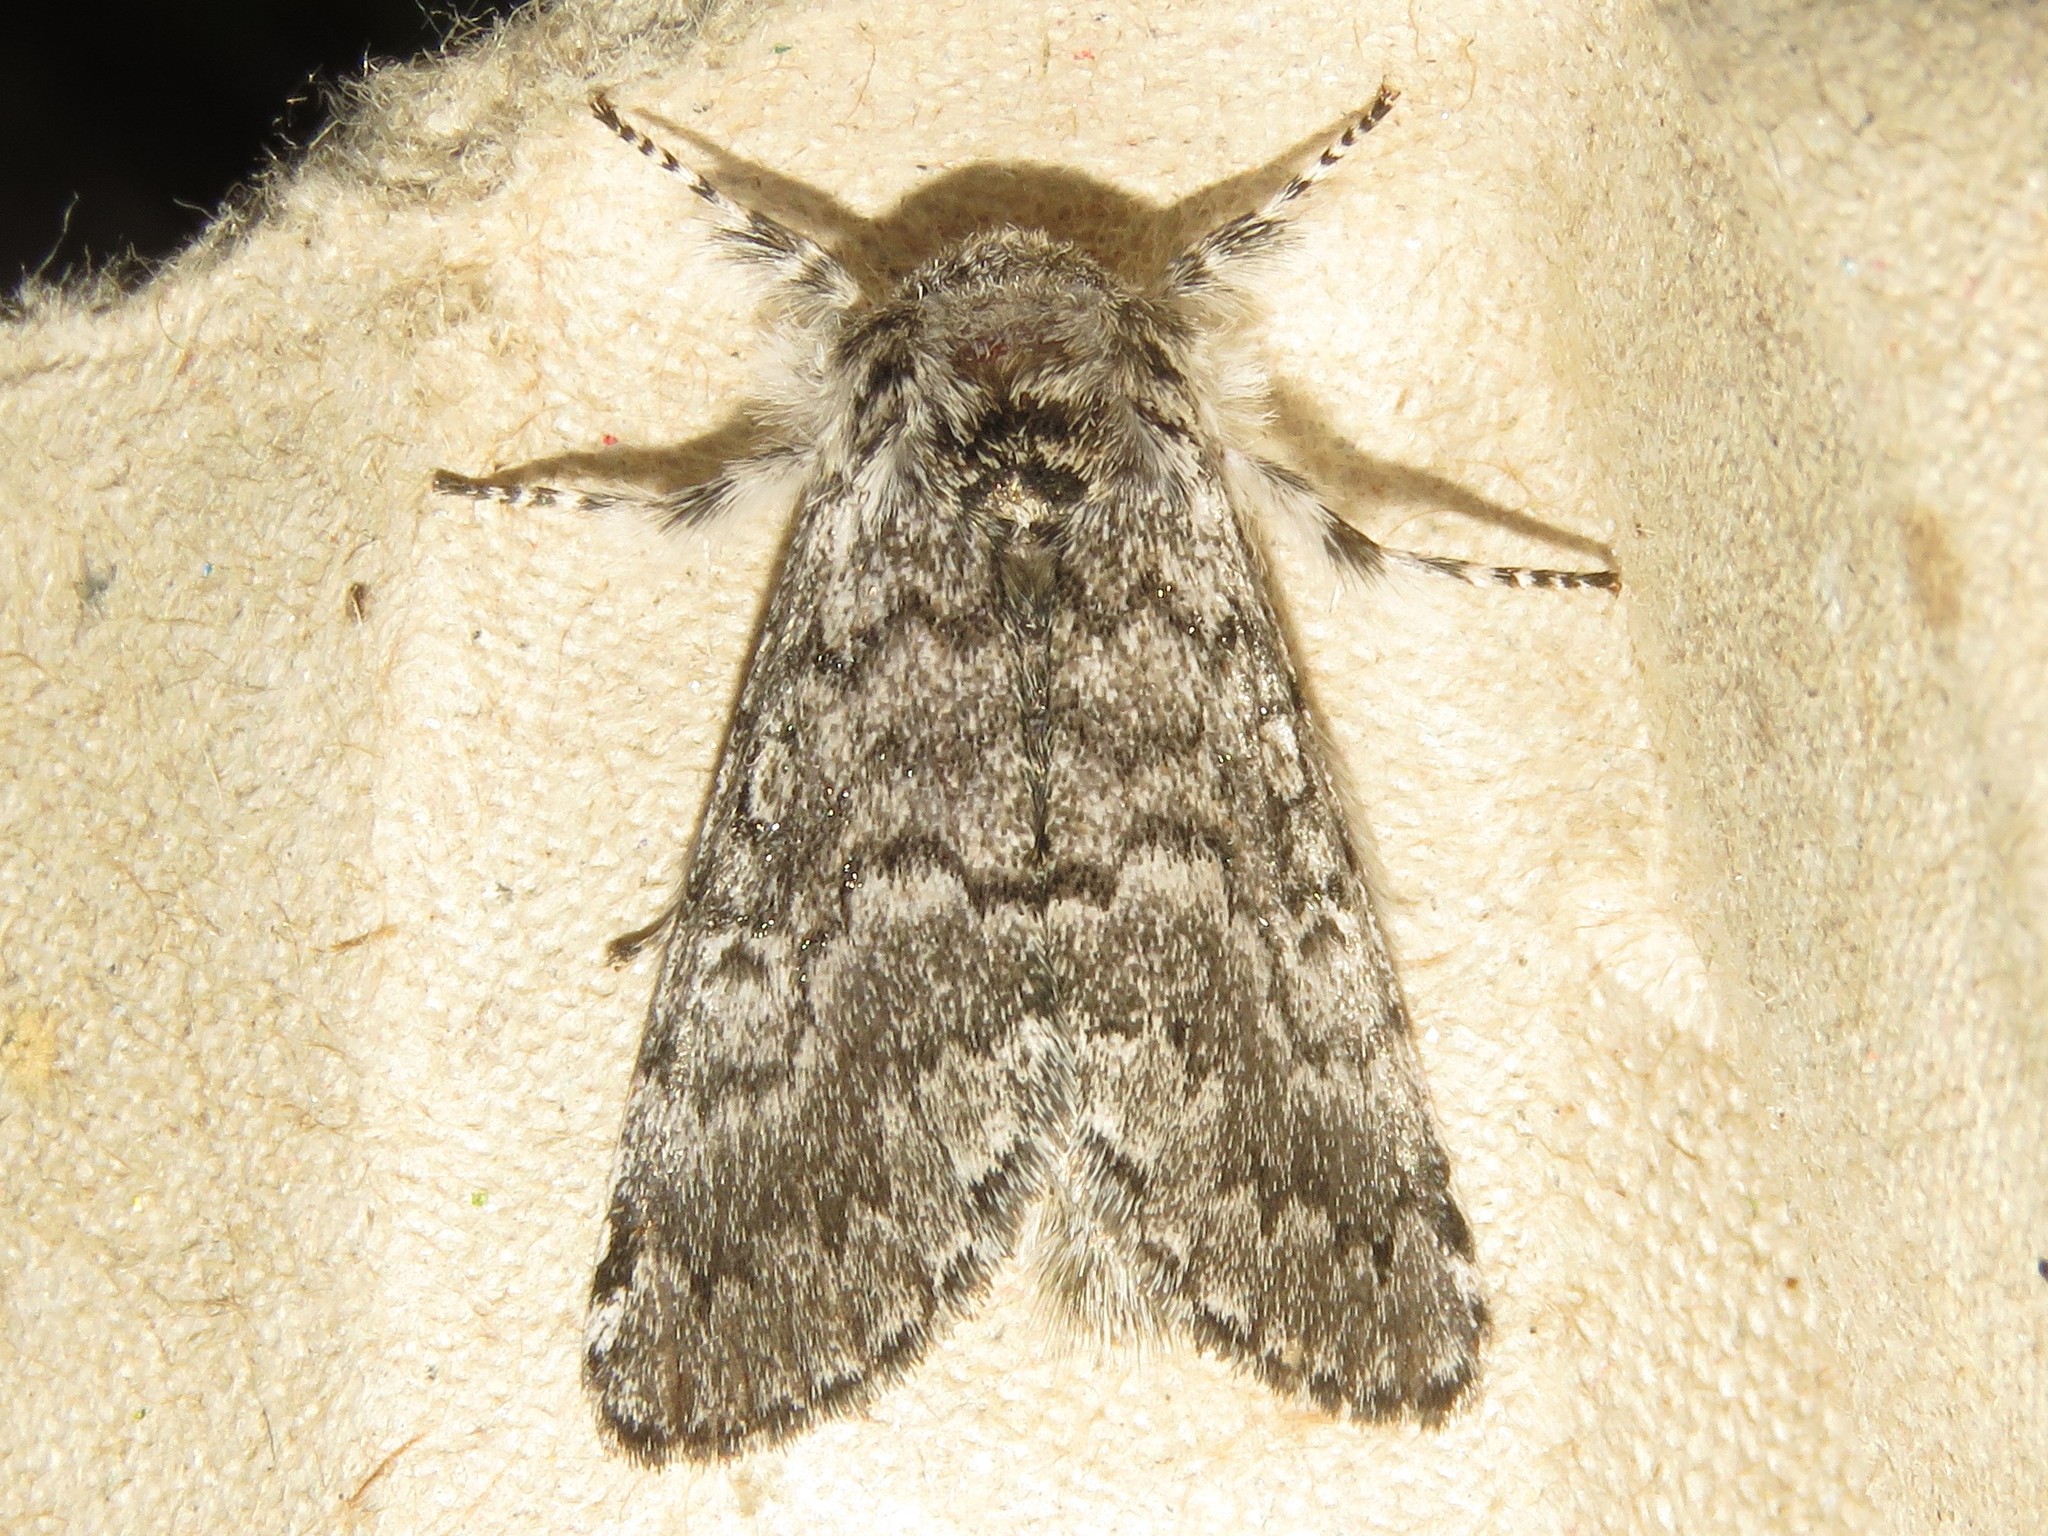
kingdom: Animalia
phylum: Arthropoda
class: Insecta
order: Lepidoptera
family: Noctuidae
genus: Colocasia
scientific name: Colocasia propinquilinea
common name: Close-banded demas
